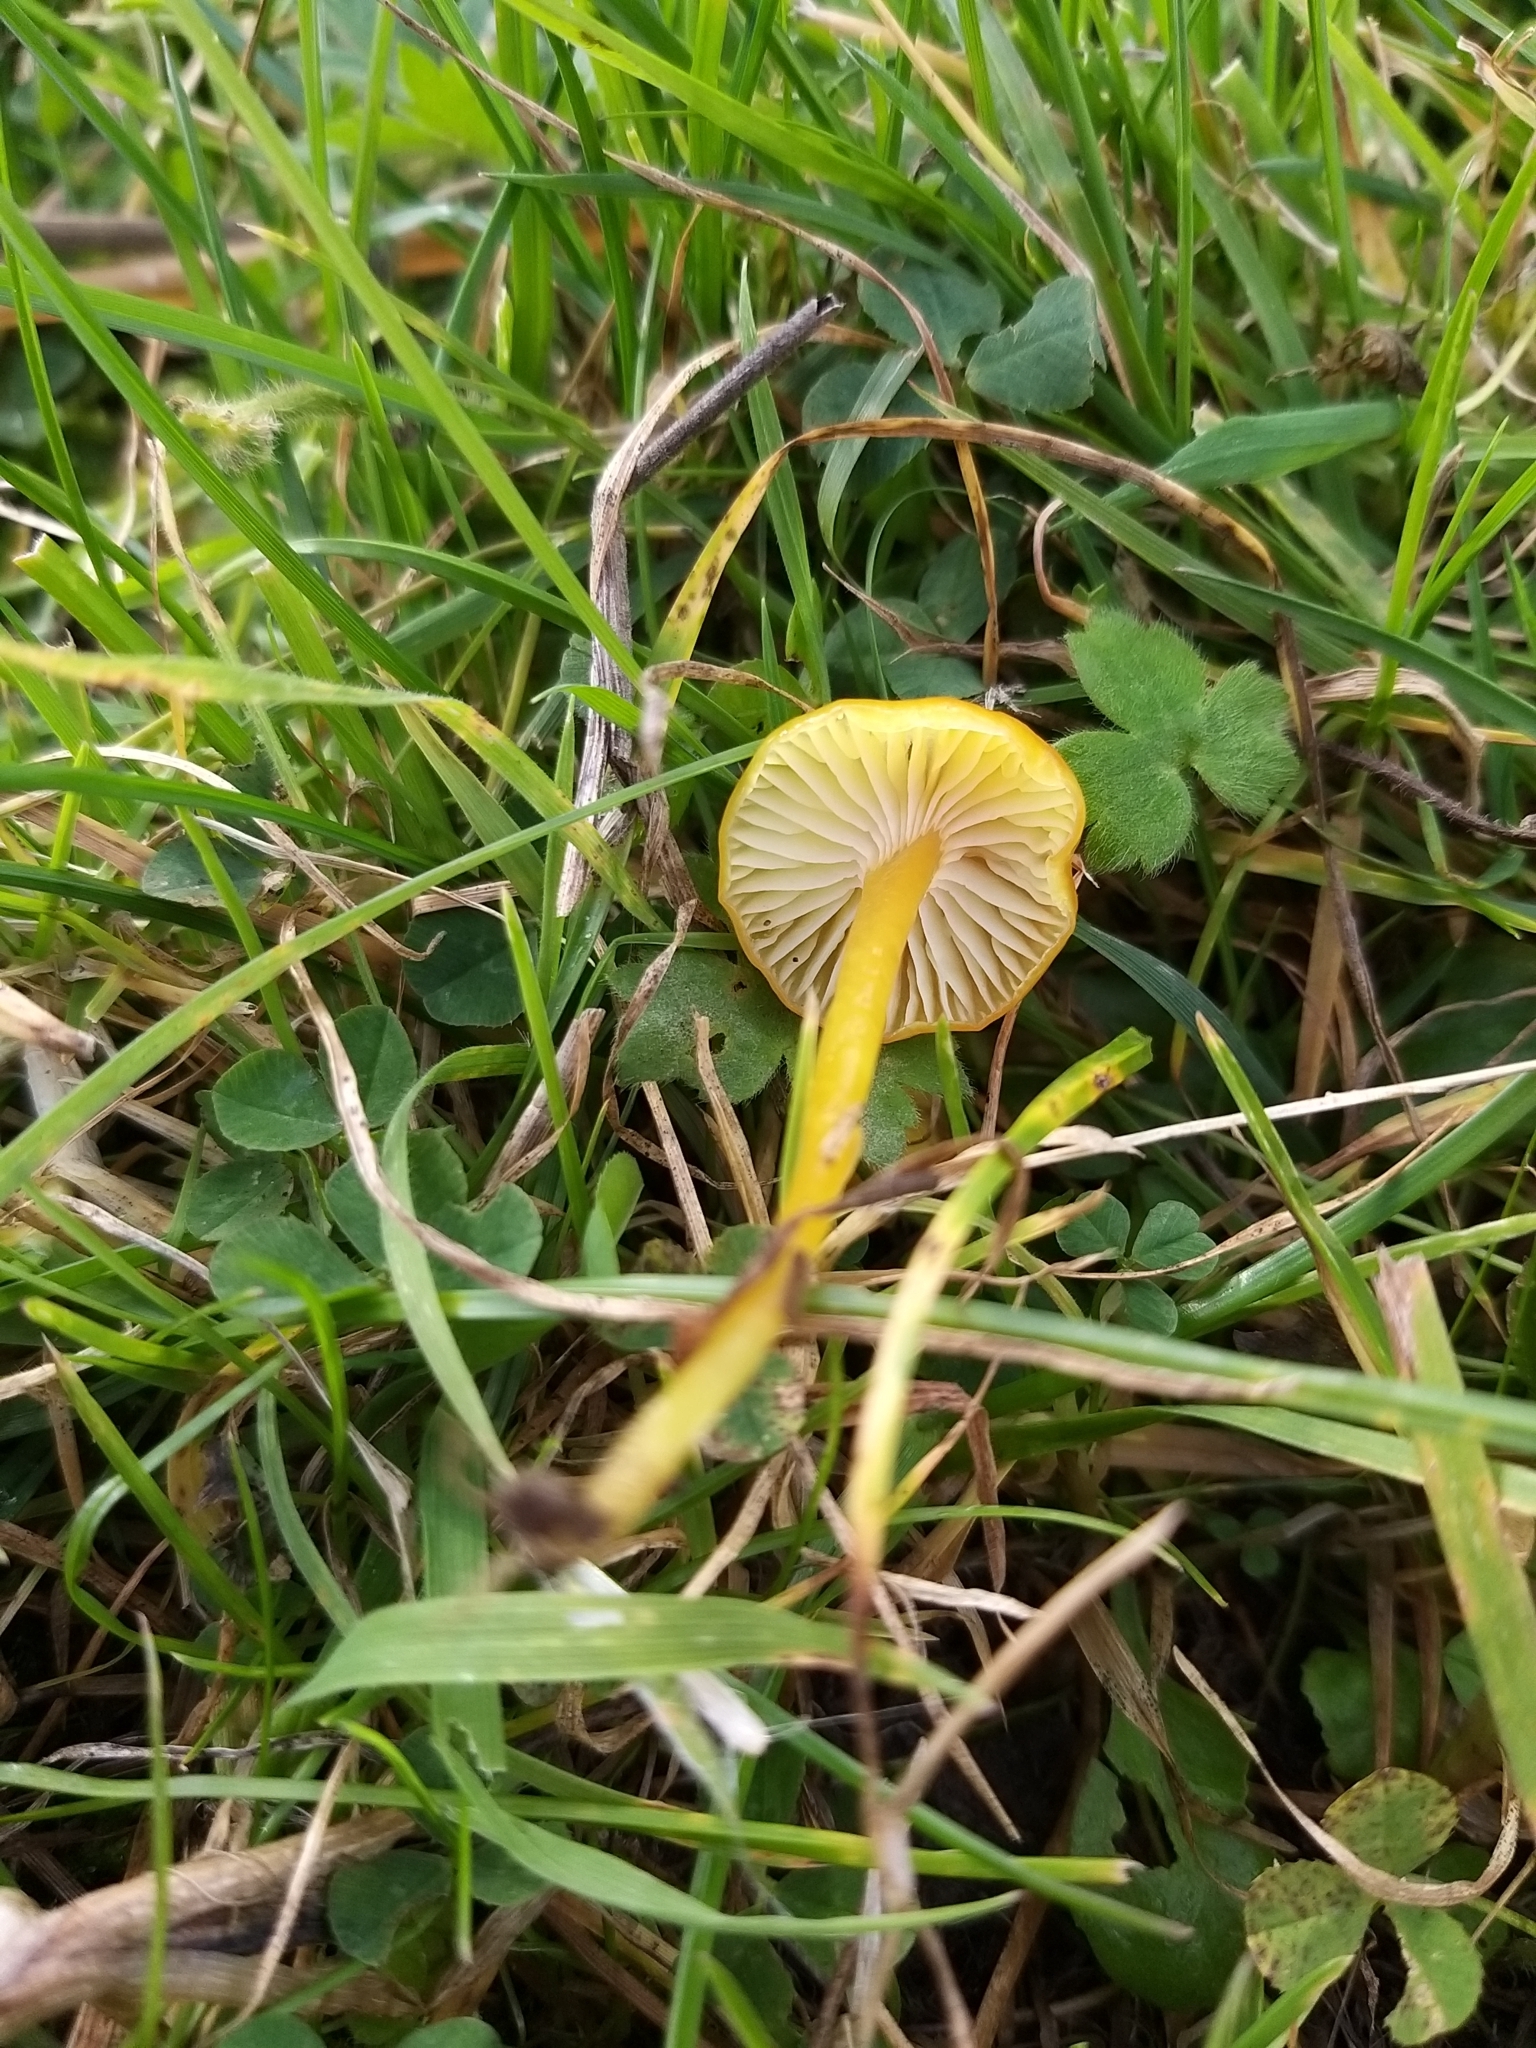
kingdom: Fungi
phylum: Basidiomycota
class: Agaricomycetes
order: Agaricales
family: Hygrophoraceae
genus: Hygrocybe
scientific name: Hygrocybe glutinipes
